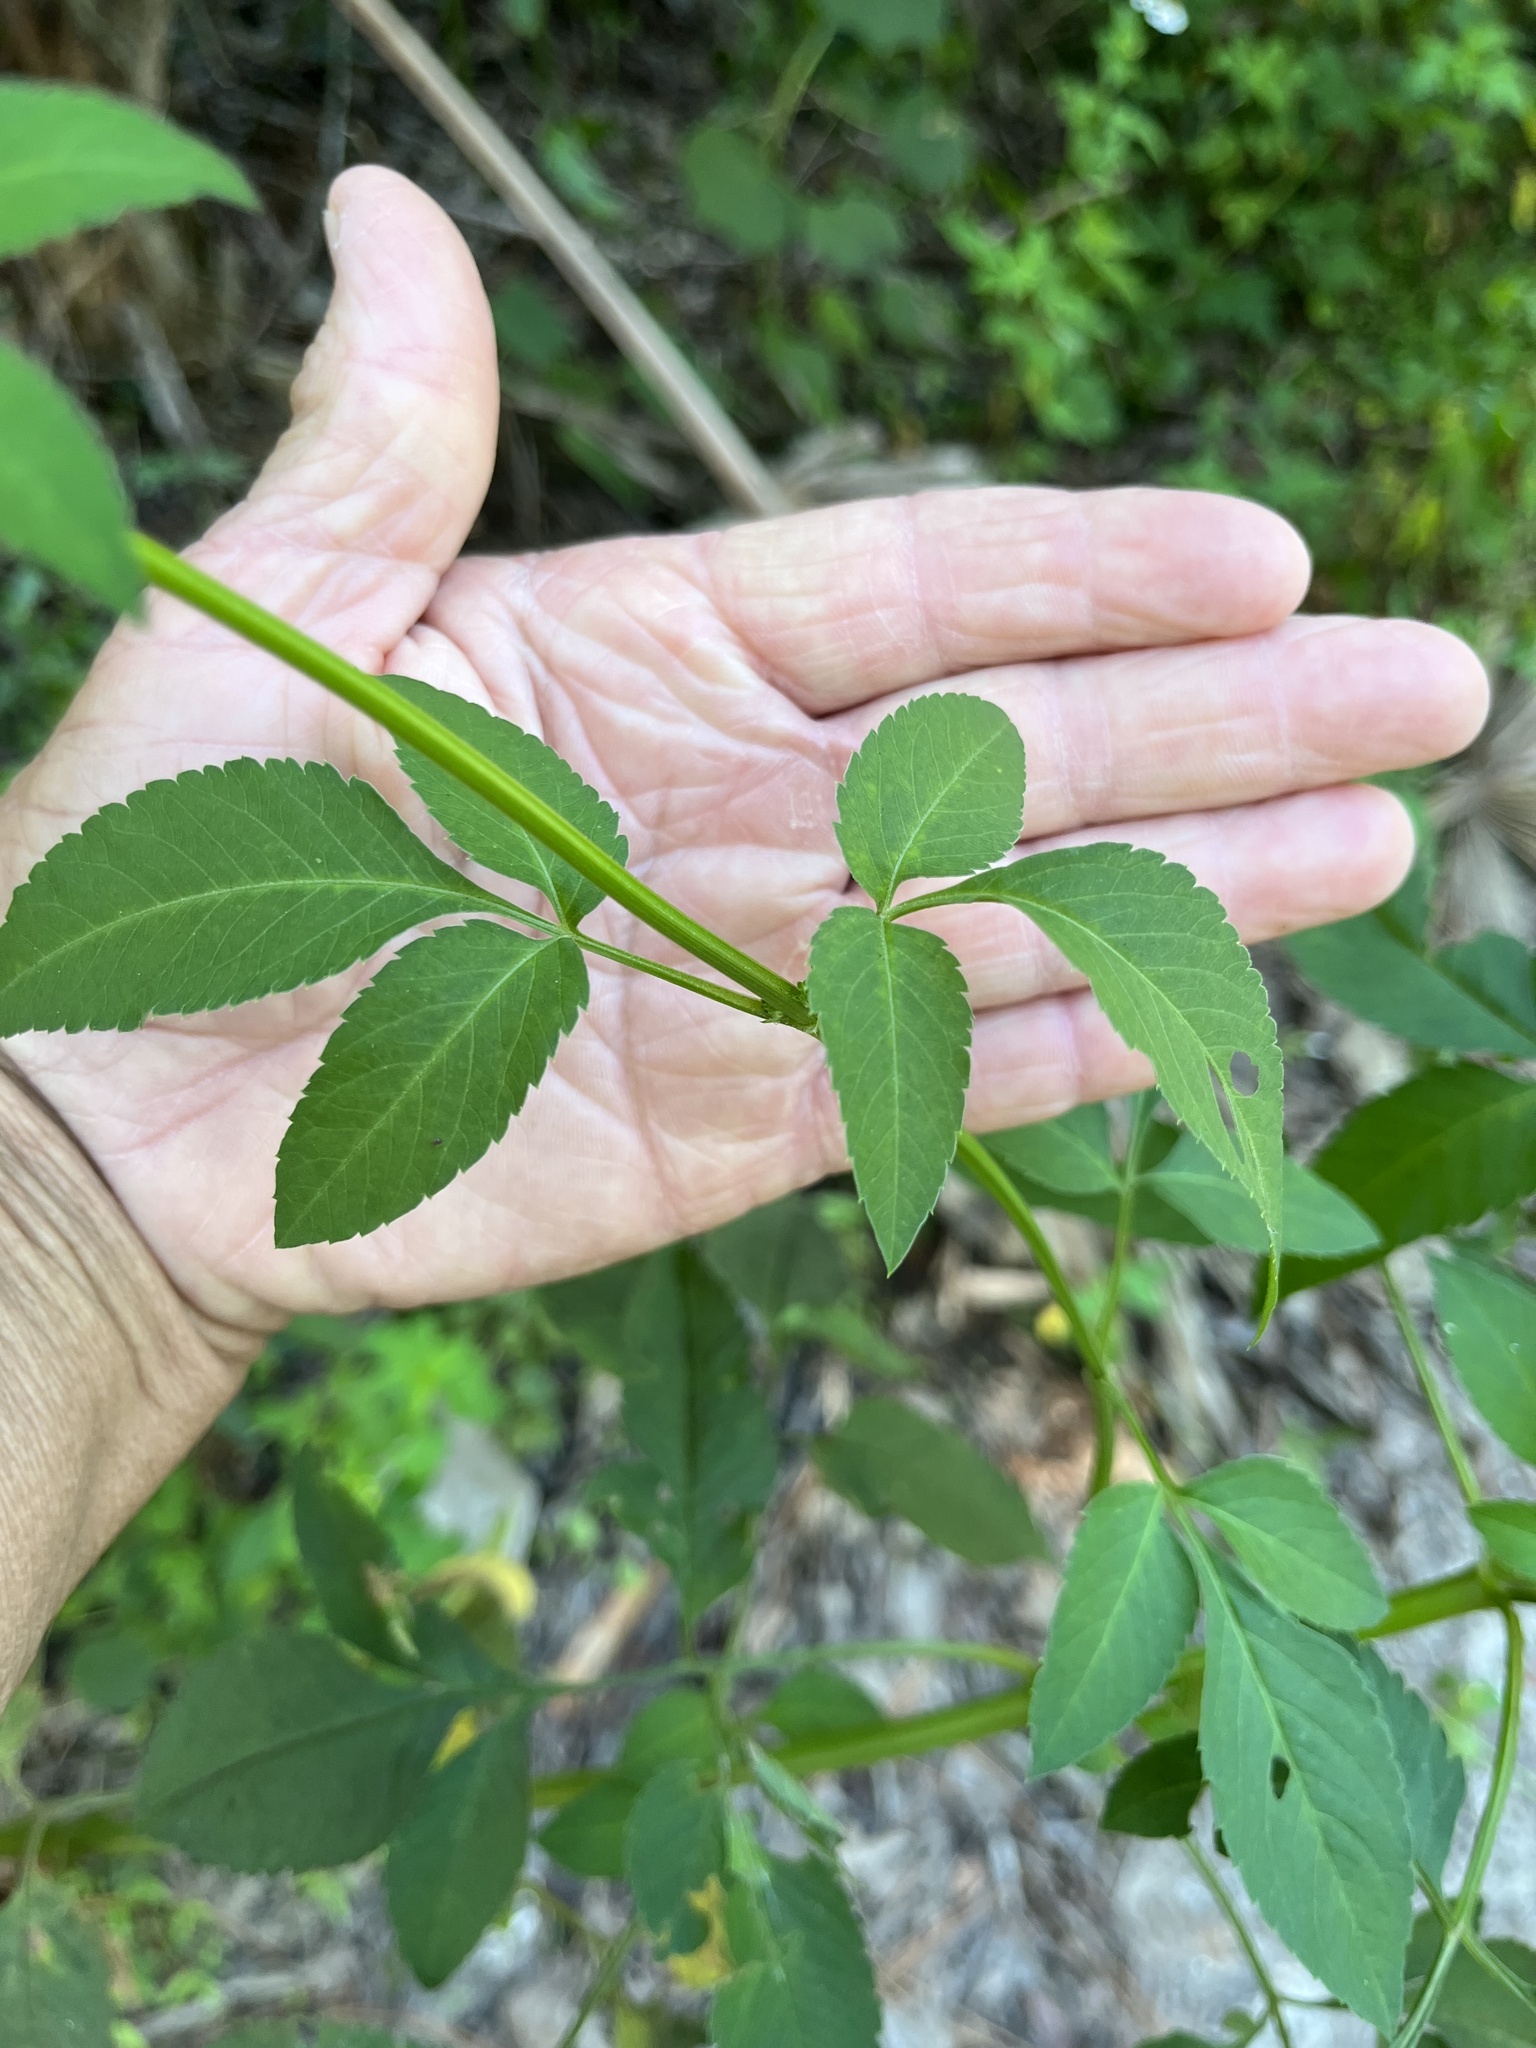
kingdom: Plantae
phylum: Tracheophyta
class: Magnoliopsida
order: Asterales
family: Asteraceae
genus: Bidens
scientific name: Bidens alba
